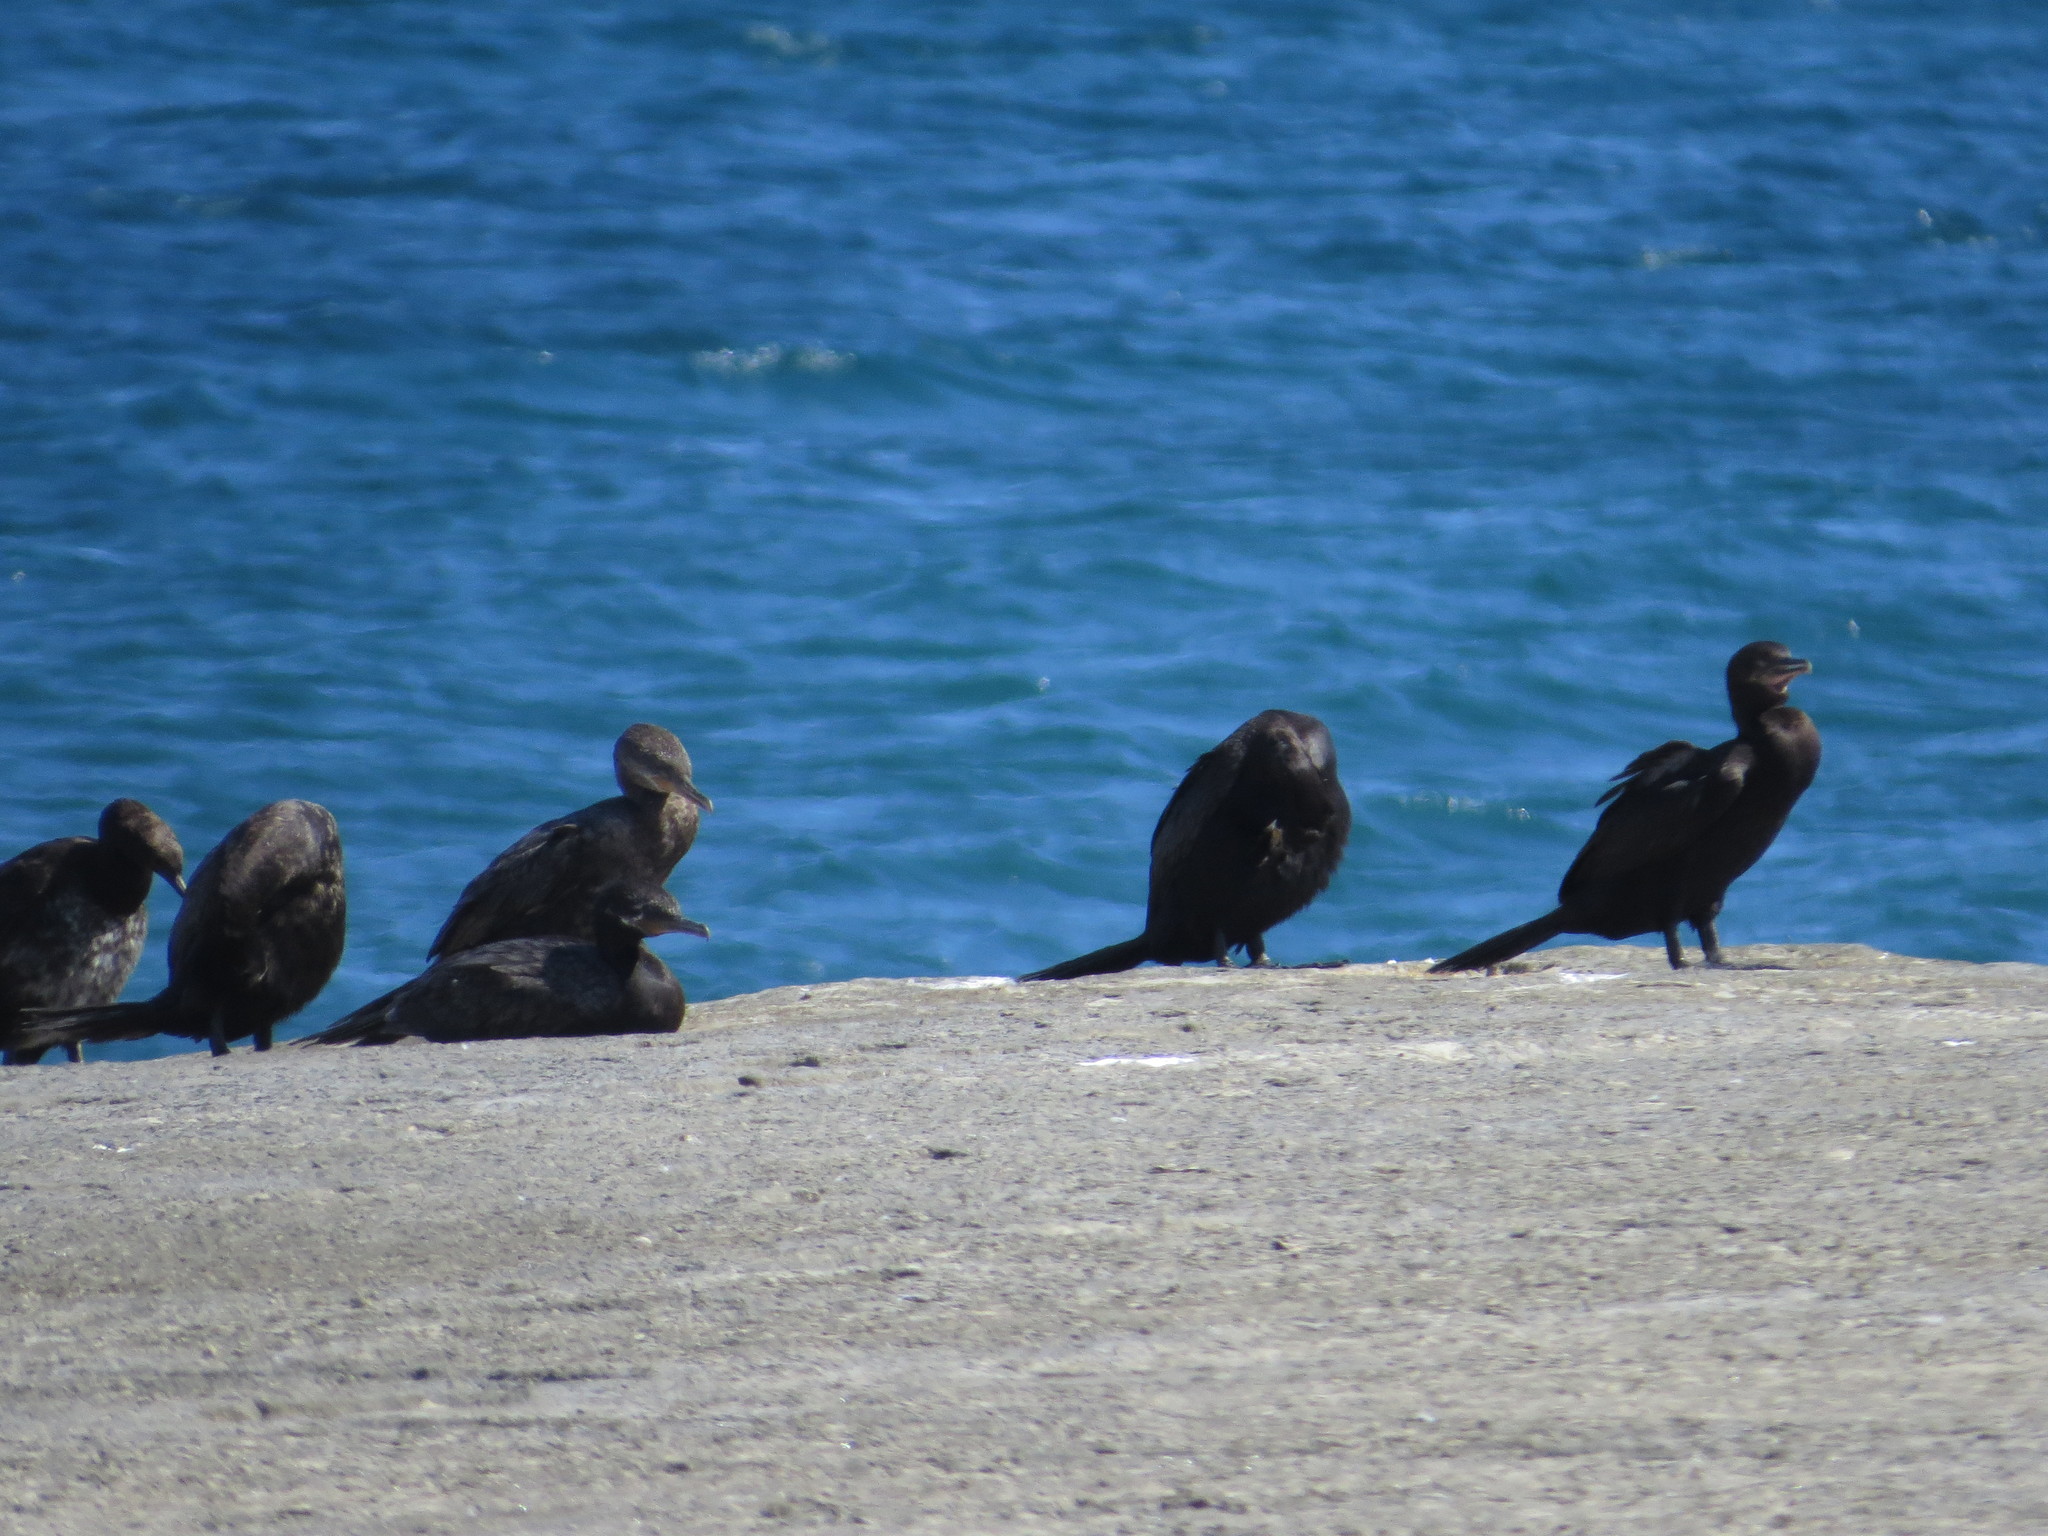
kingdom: Animalia
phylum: Chordata
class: Aves
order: Suliformes
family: Phalacrocoracidae
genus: Phalacrocorax
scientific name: Phalacrocorax brasilianus
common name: Neotropic cormorant
